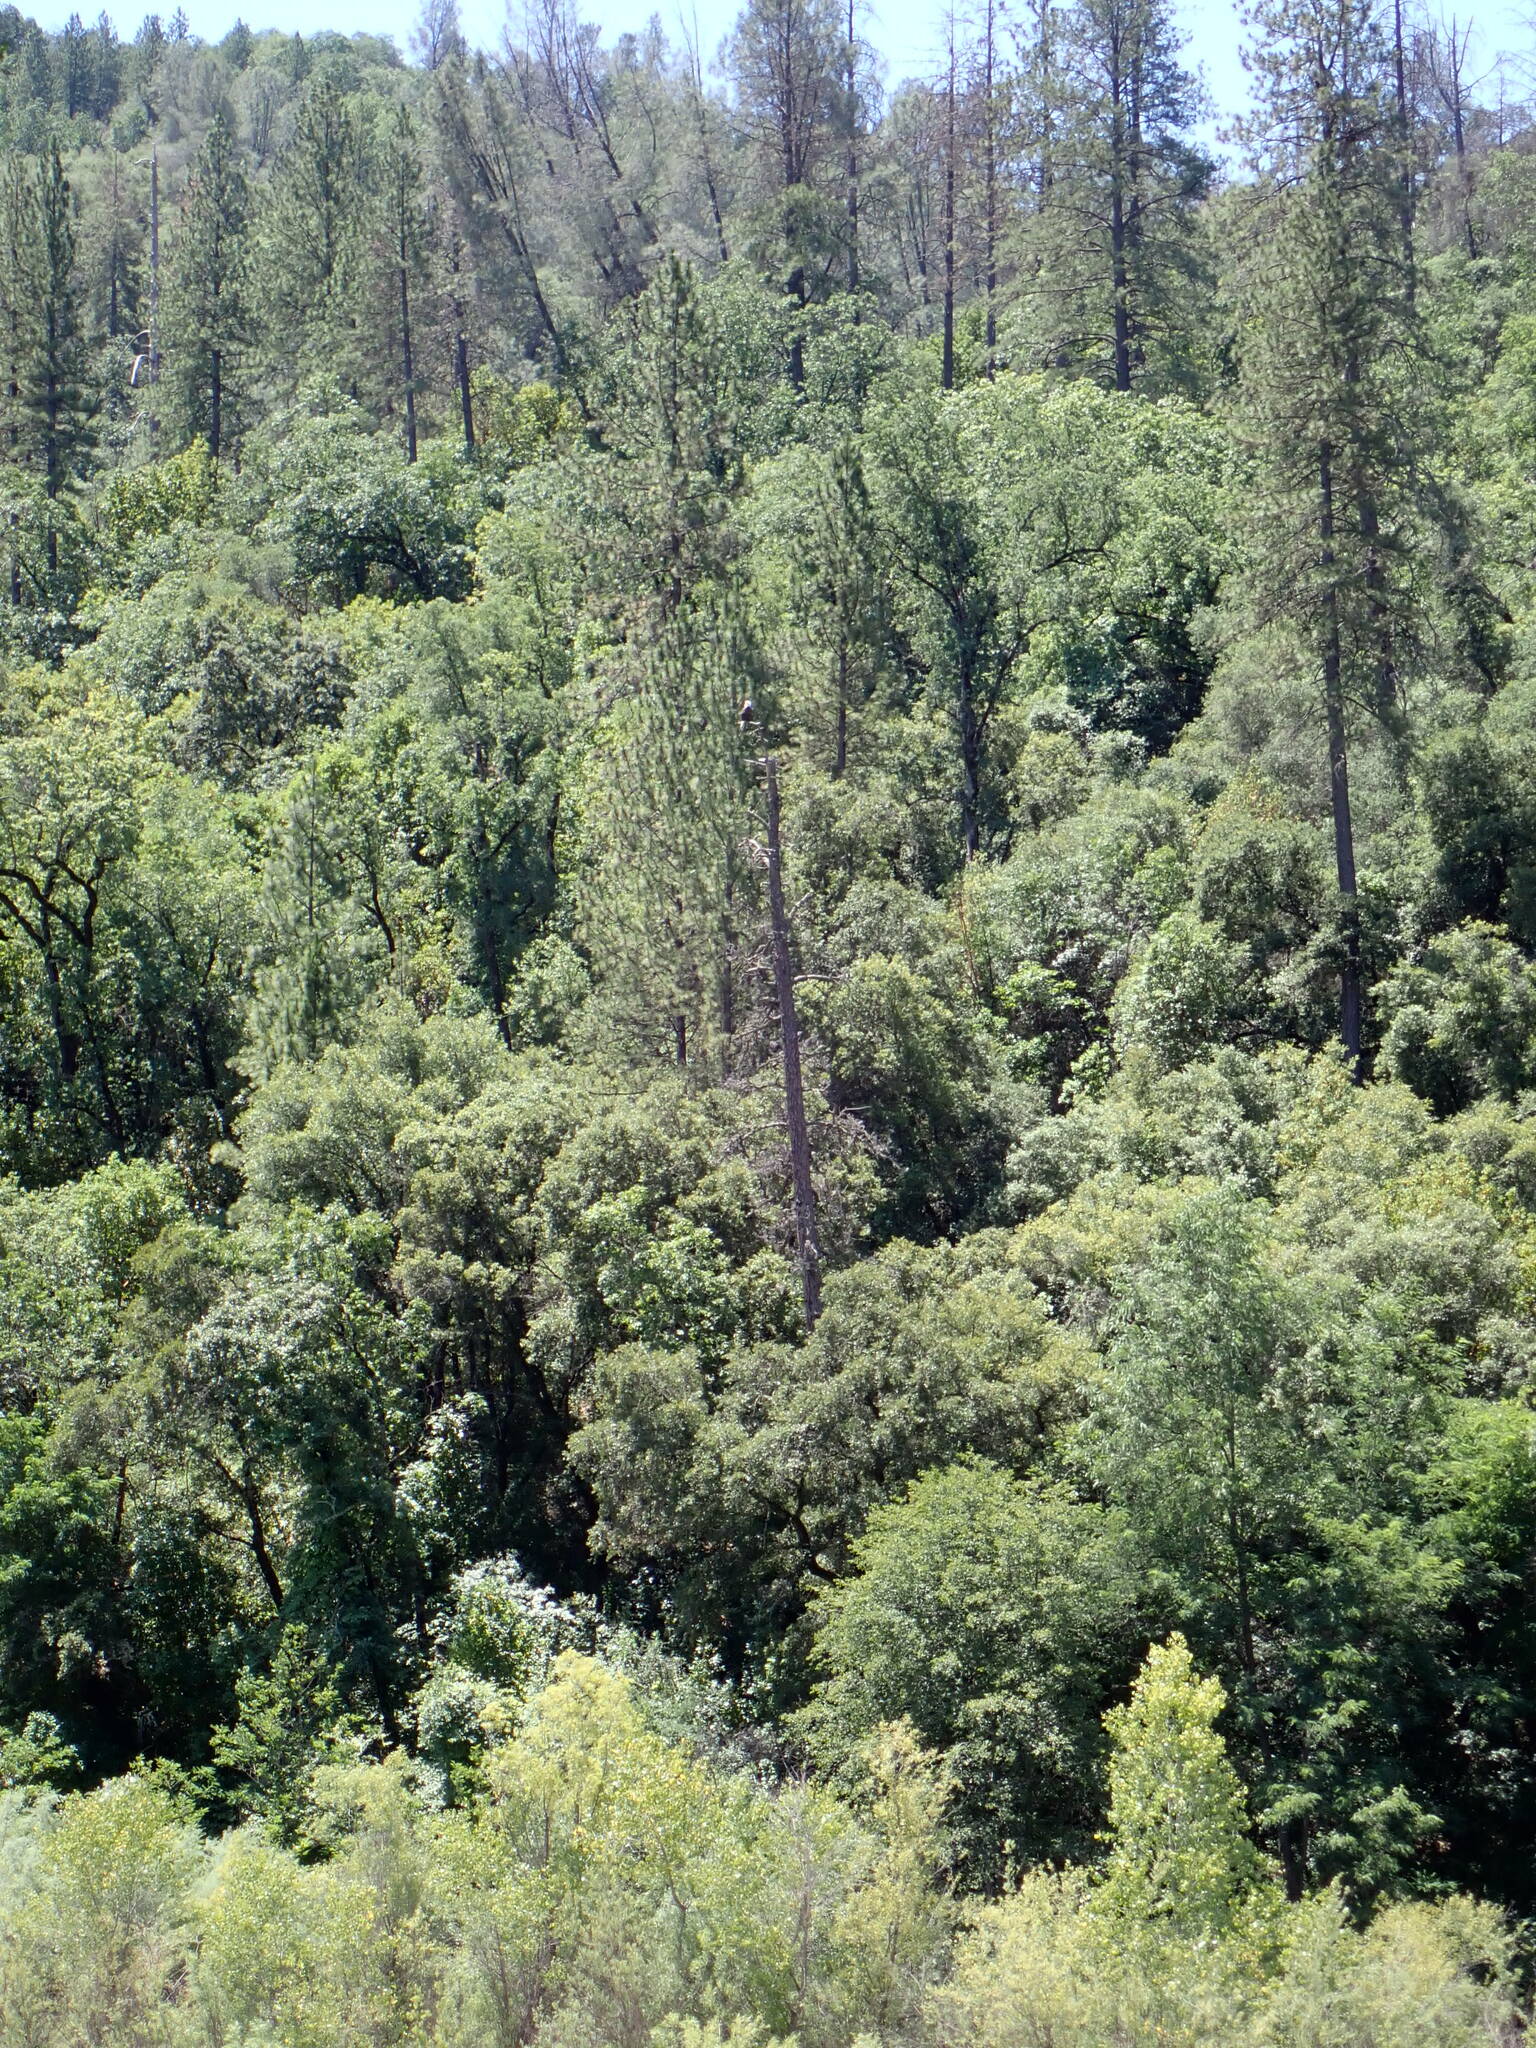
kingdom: Animalia
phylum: Chordata
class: Aves
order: Accipitriformes
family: Accipitridae
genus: Haliaeetus
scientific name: Haliaeetus leucocephalus
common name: Bald eagle
